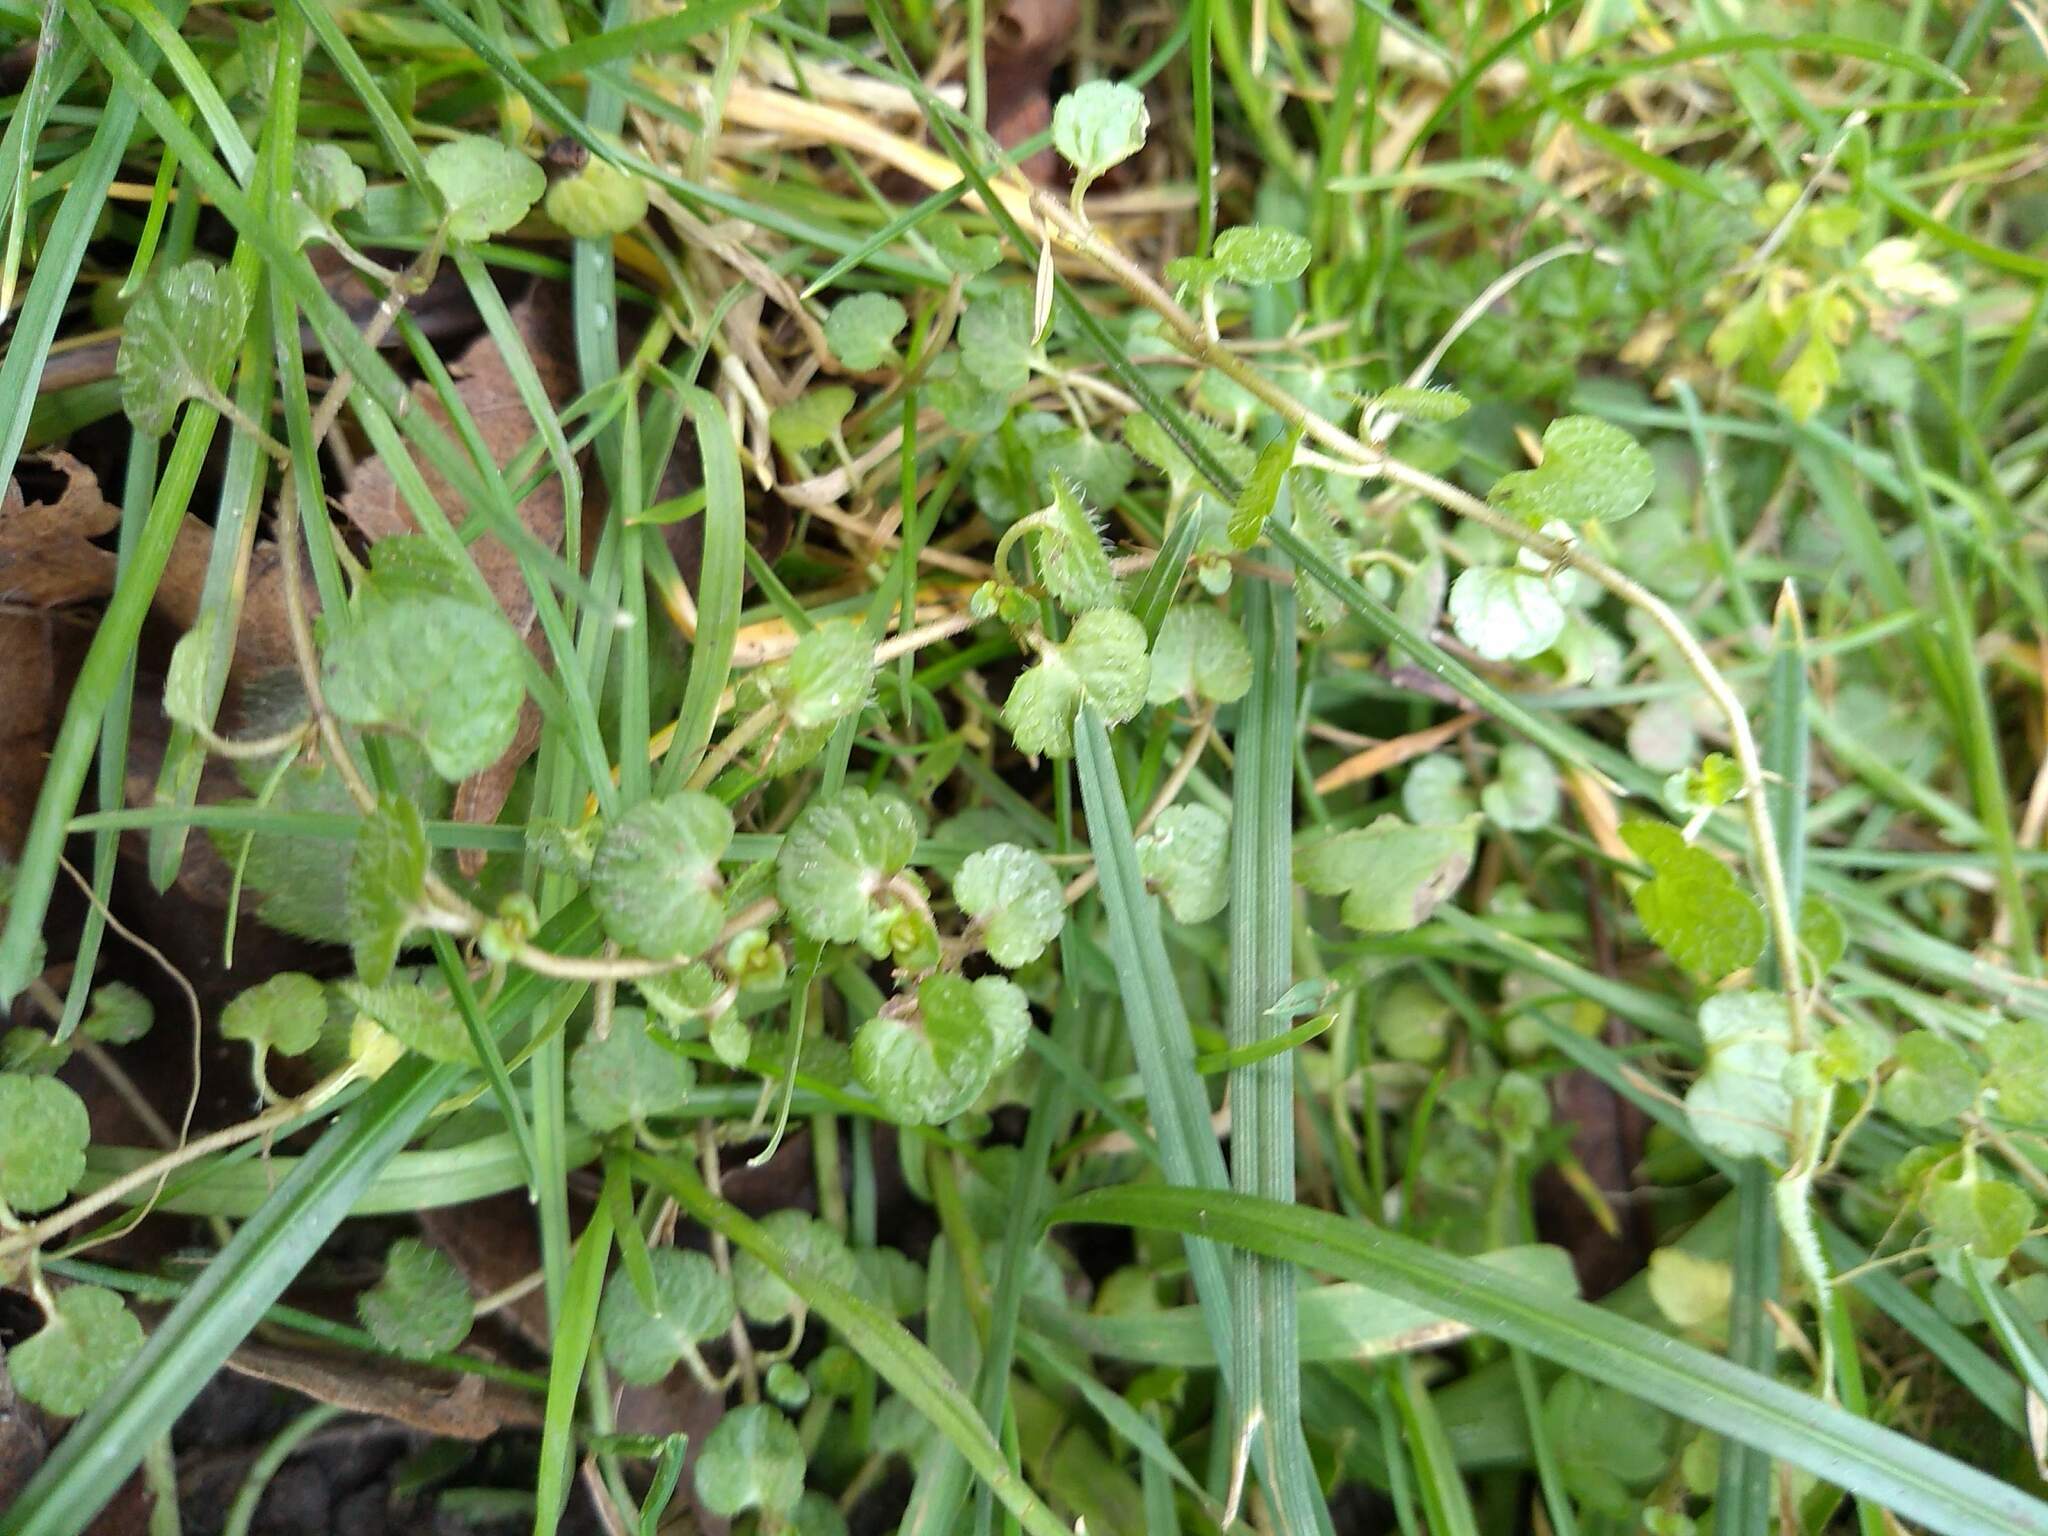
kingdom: Plantae
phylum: Tracheophyta
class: Magnoliopsida
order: Lamiales
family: Plantaginaceae
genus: Veronica
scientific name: Veronica filiformis
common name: Slender speedwell
